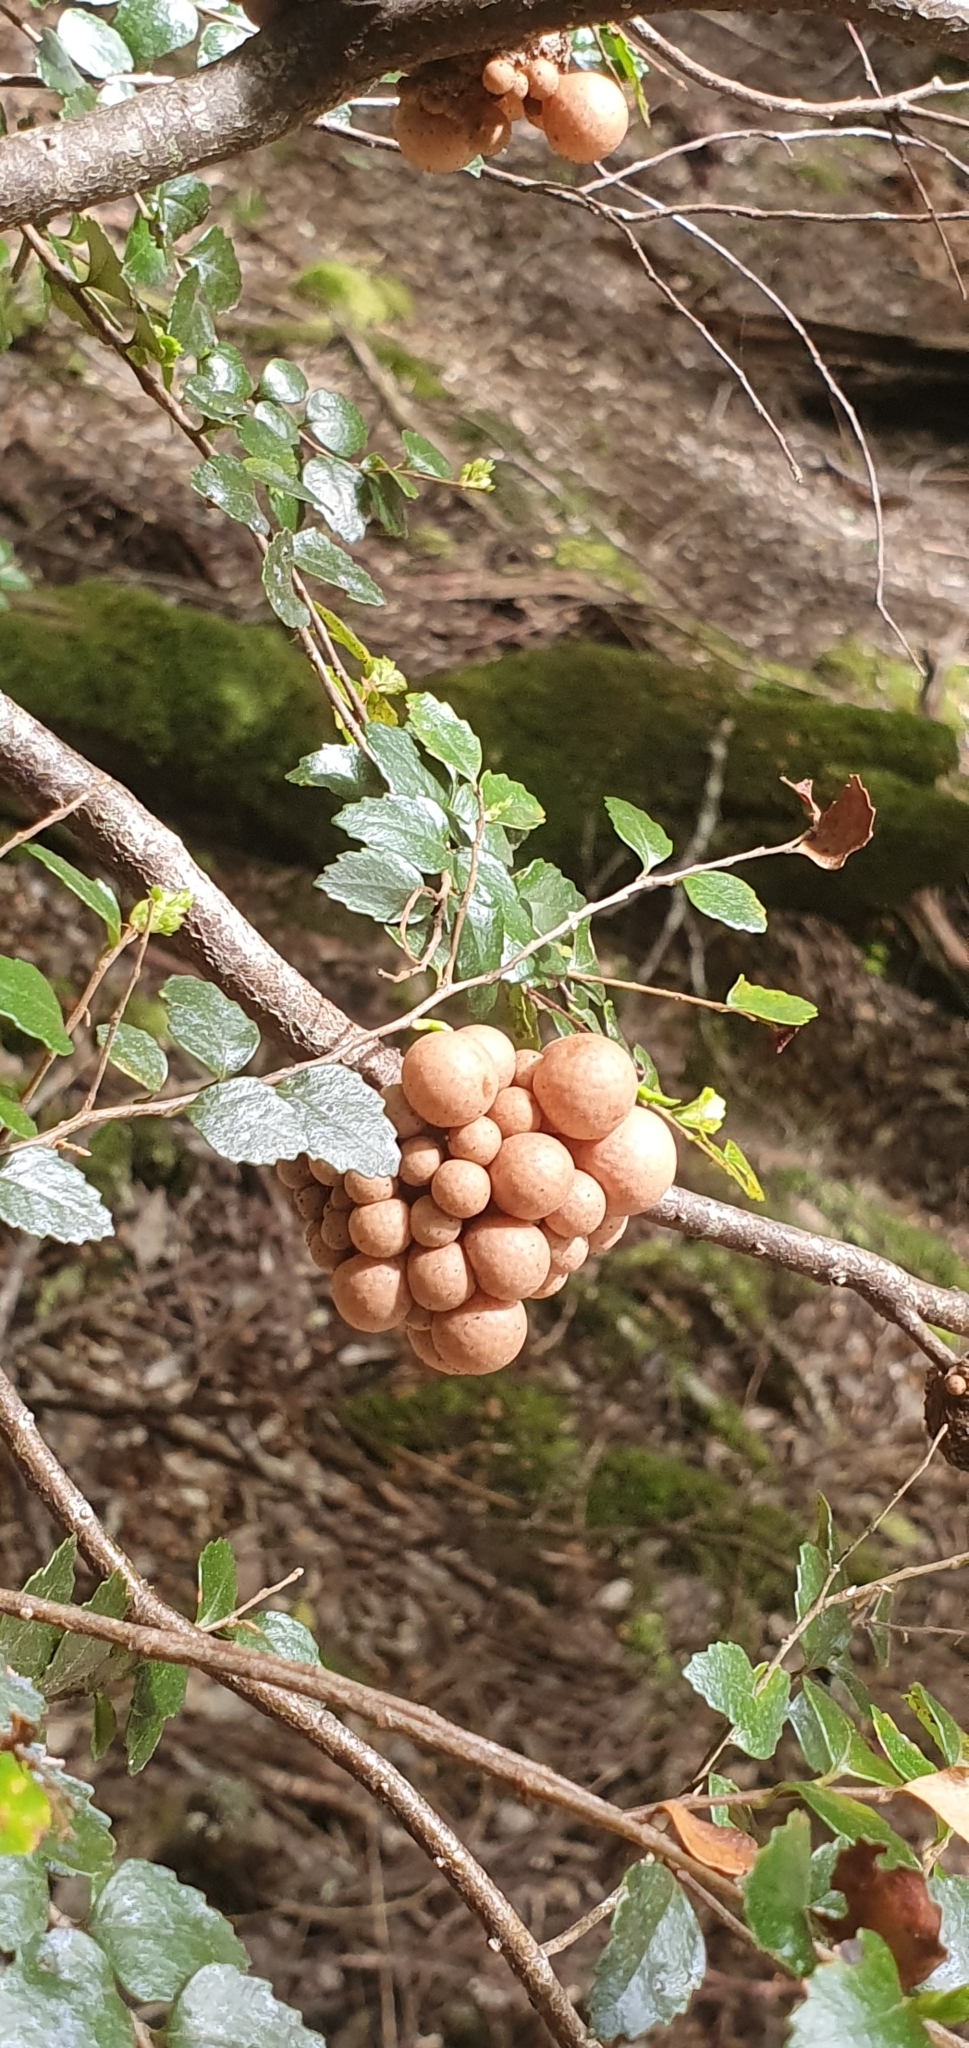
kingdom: Fungi
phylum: Ascomycota
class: Leotiomycetes
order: Cyttariales
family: Cyttariaceae
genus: Cyttaria
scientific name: Cyttaria gunnii
